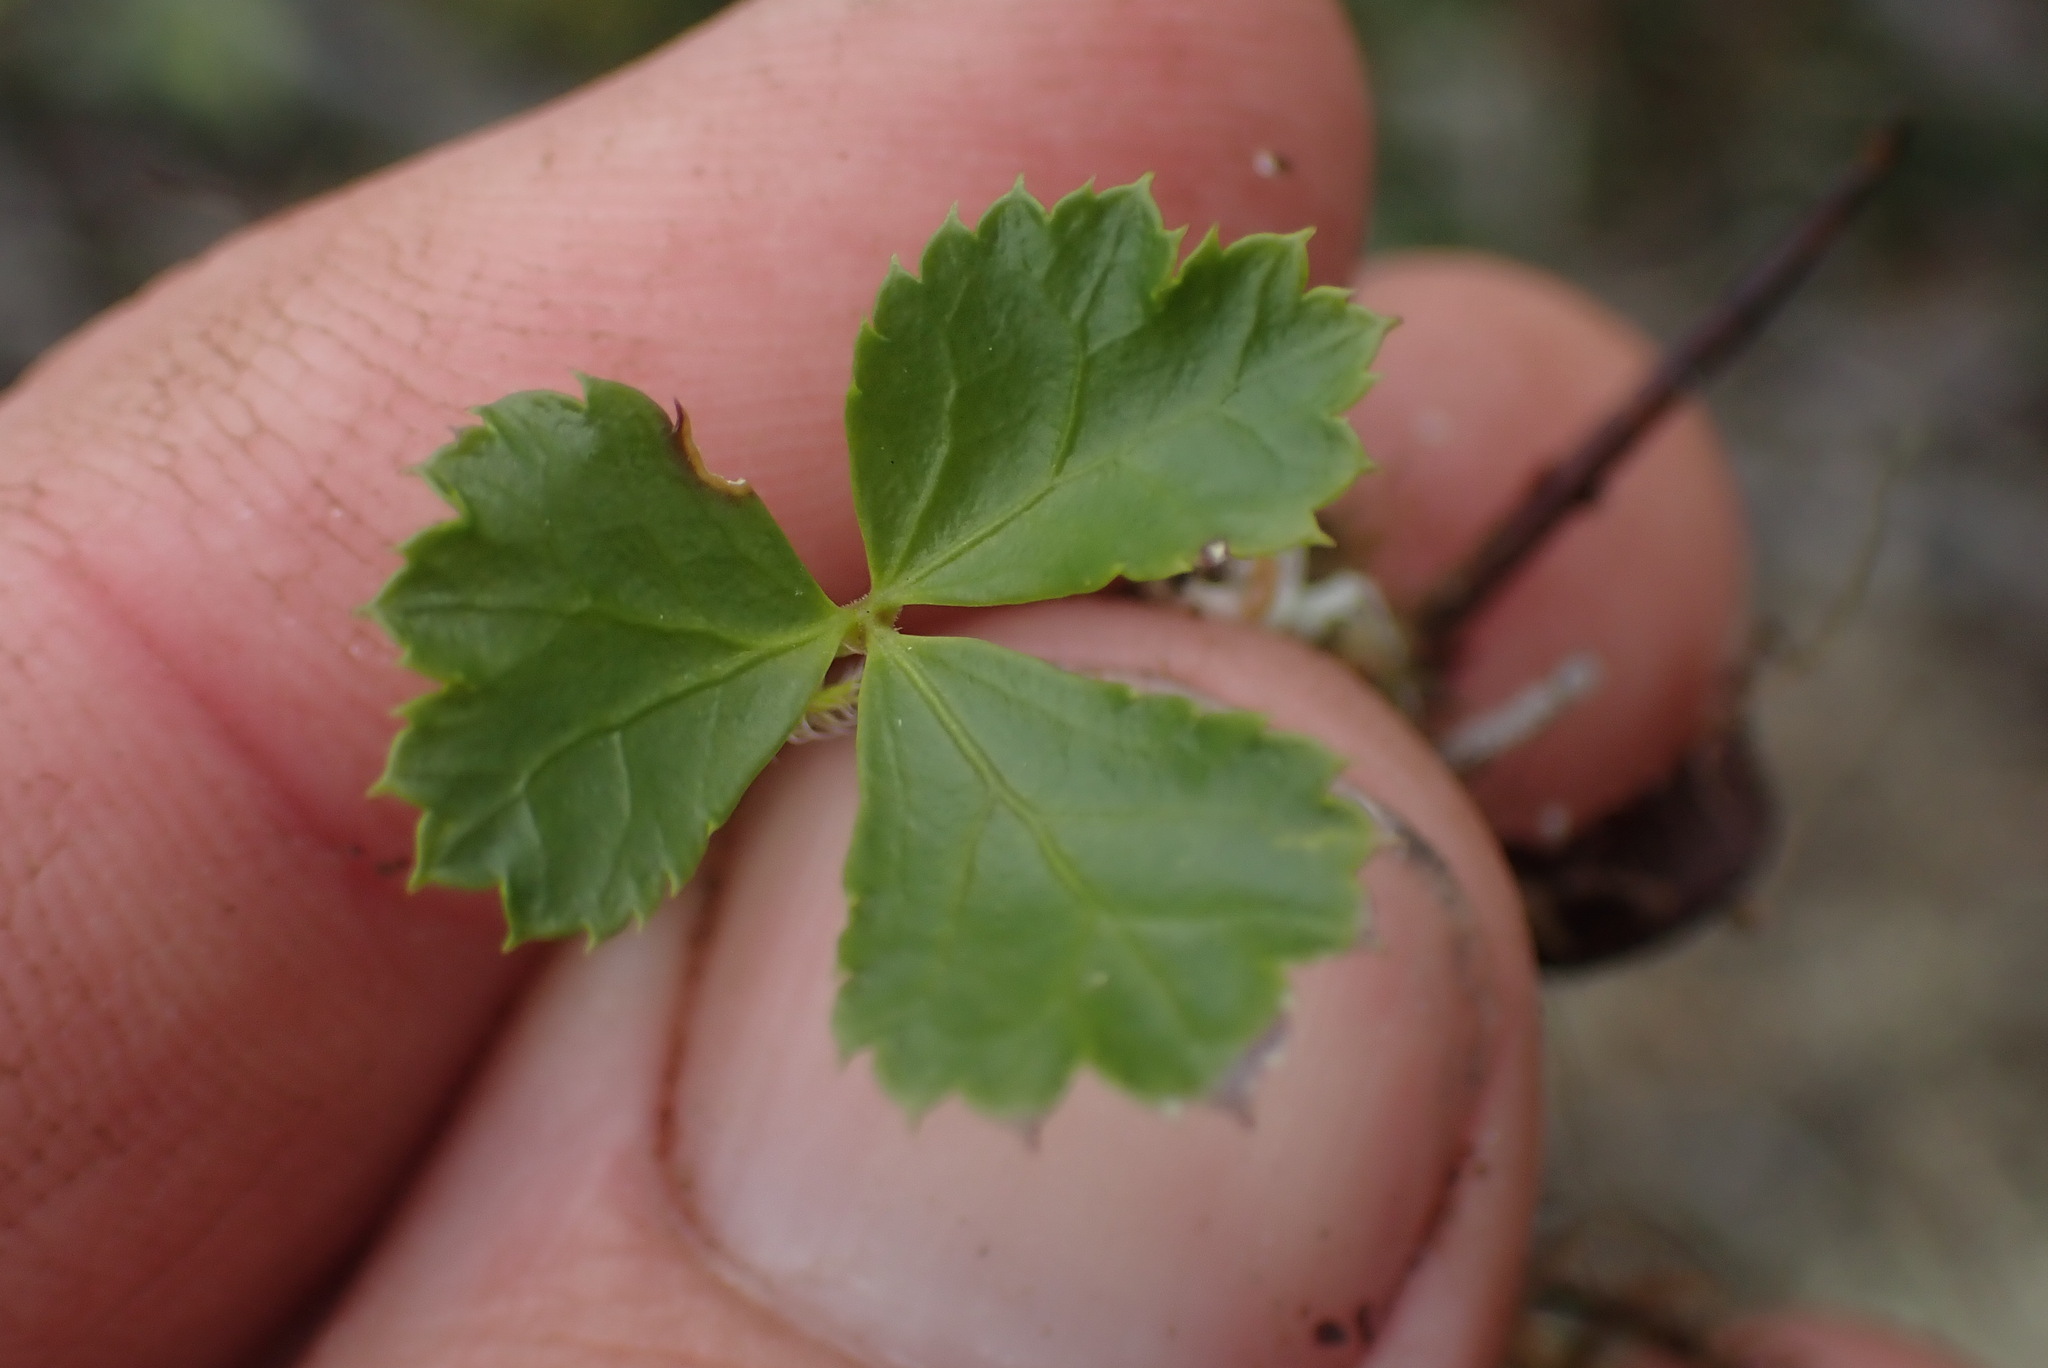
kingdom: Plantae
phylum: Tracheophyta
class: Magnoliopsida
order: Ranunculales
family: Ranunculaceae
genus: Coptis
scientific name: Coptis trifolia
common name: Canker-root
